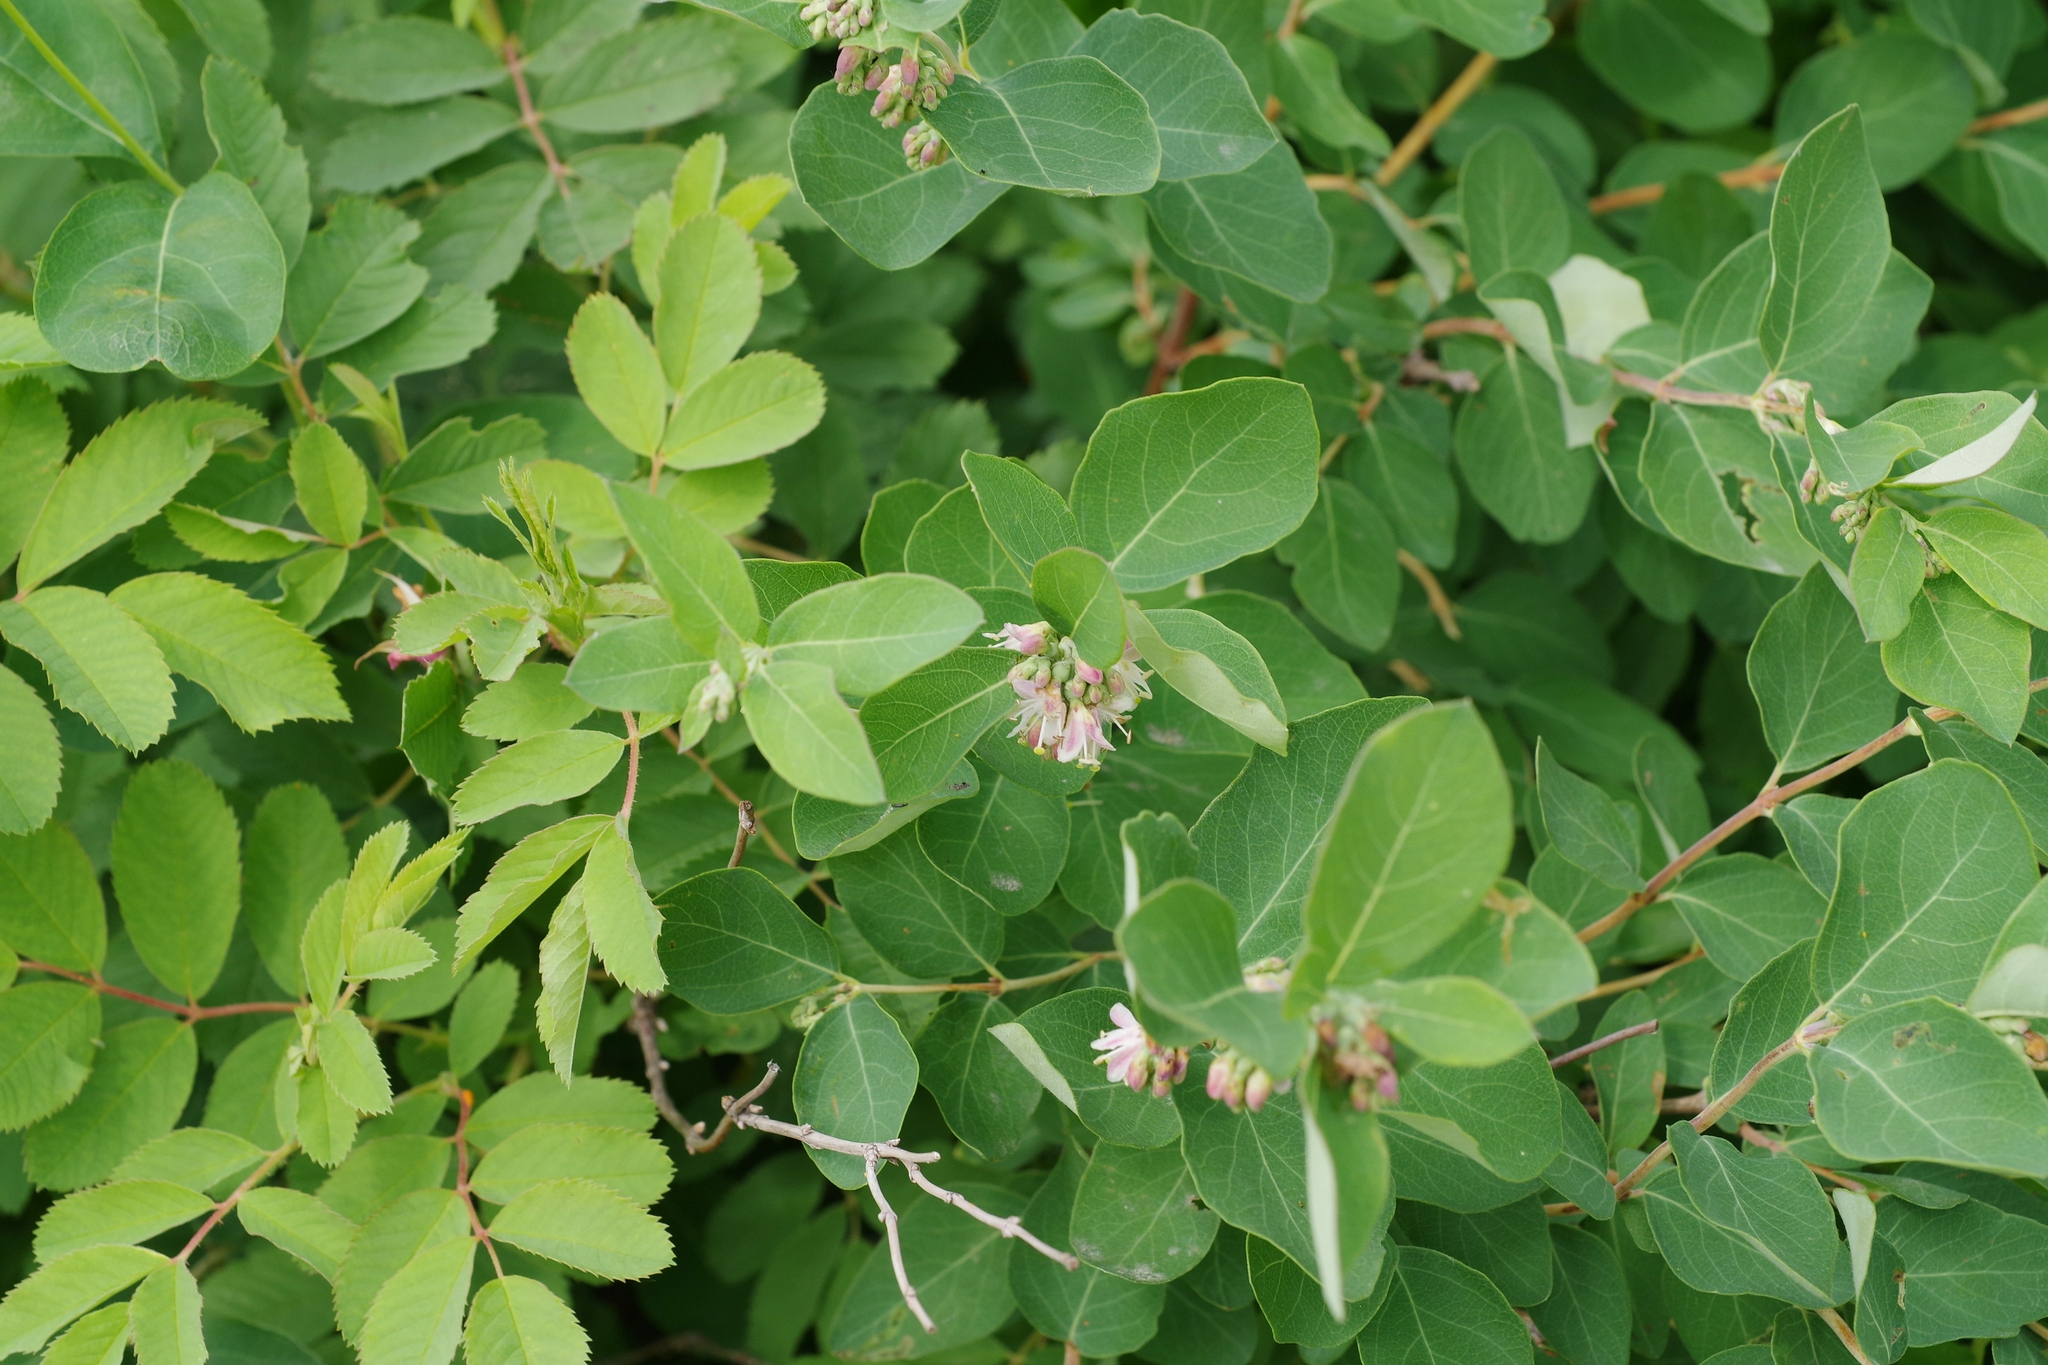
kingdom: Plantae
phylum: Tracheophyta
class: Magnoliopsida
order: Dipsacales
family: Caprifoliaceae
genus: Symphoricarpos
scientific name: Symphoricarpos occidentalis
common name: Wolfberry
